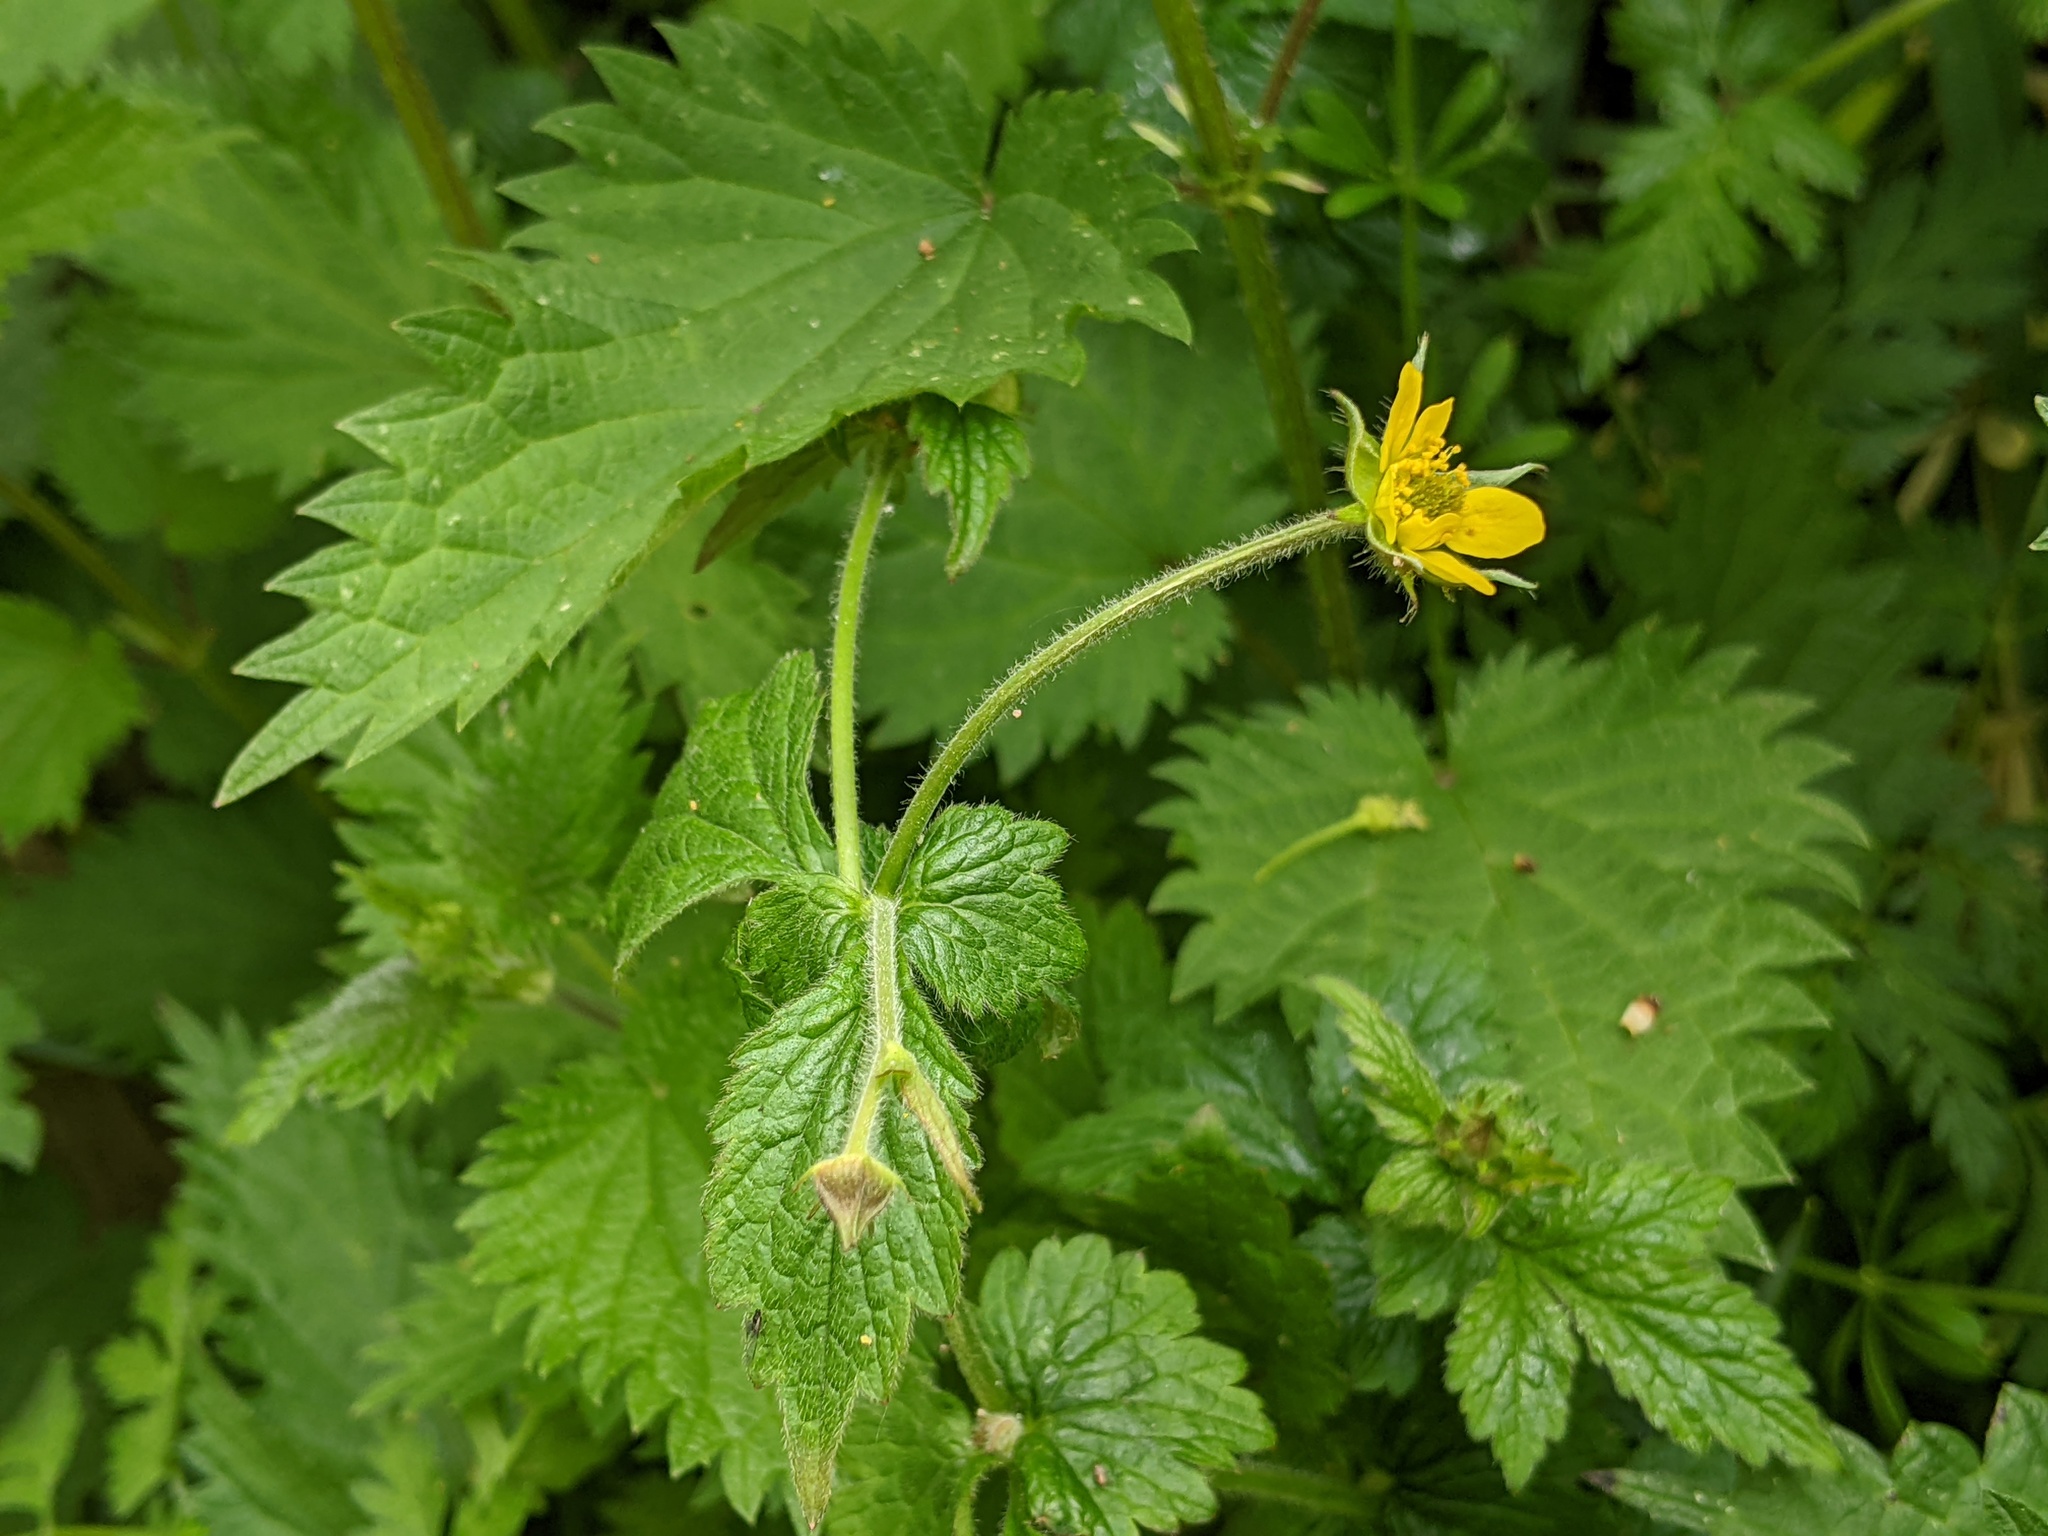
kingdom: Plantae
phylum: Tracheophyta
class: Magnoliopsida
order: Rosales
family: Rosaceae
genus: Geum
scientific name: Geum urbanum
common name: Wood avens
